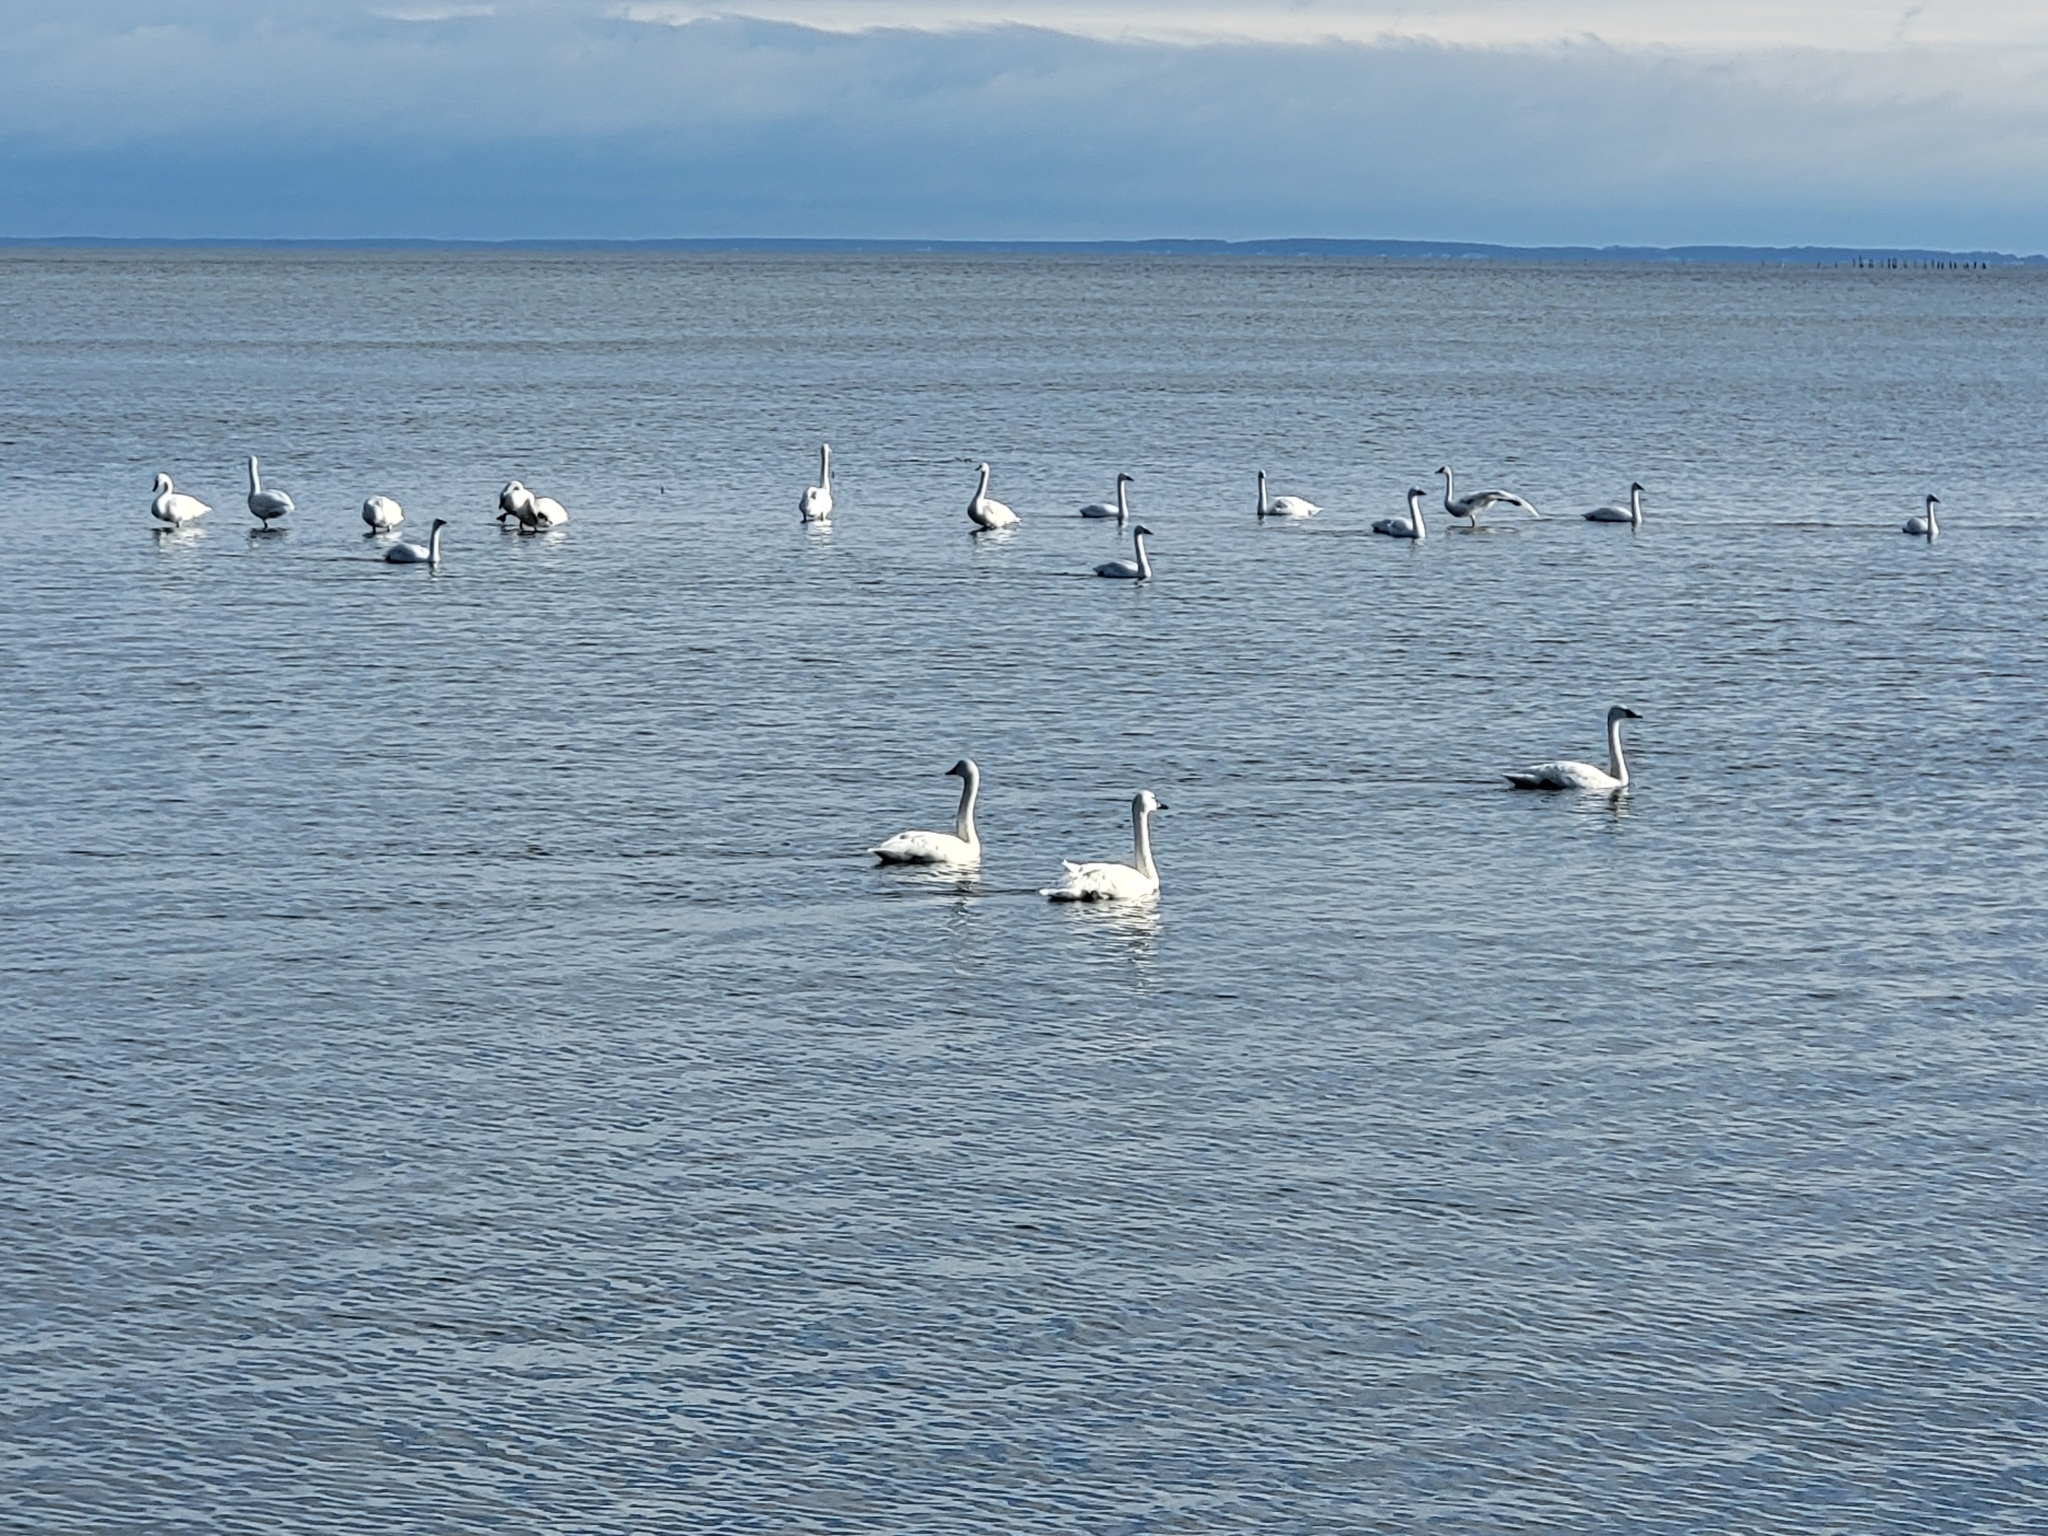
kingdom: Animalia
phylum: Chordata
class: Aves
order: Anseriformes
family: Anatidae
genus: Cygnus
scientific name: Cygnus columbianus
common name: Tundra swan
